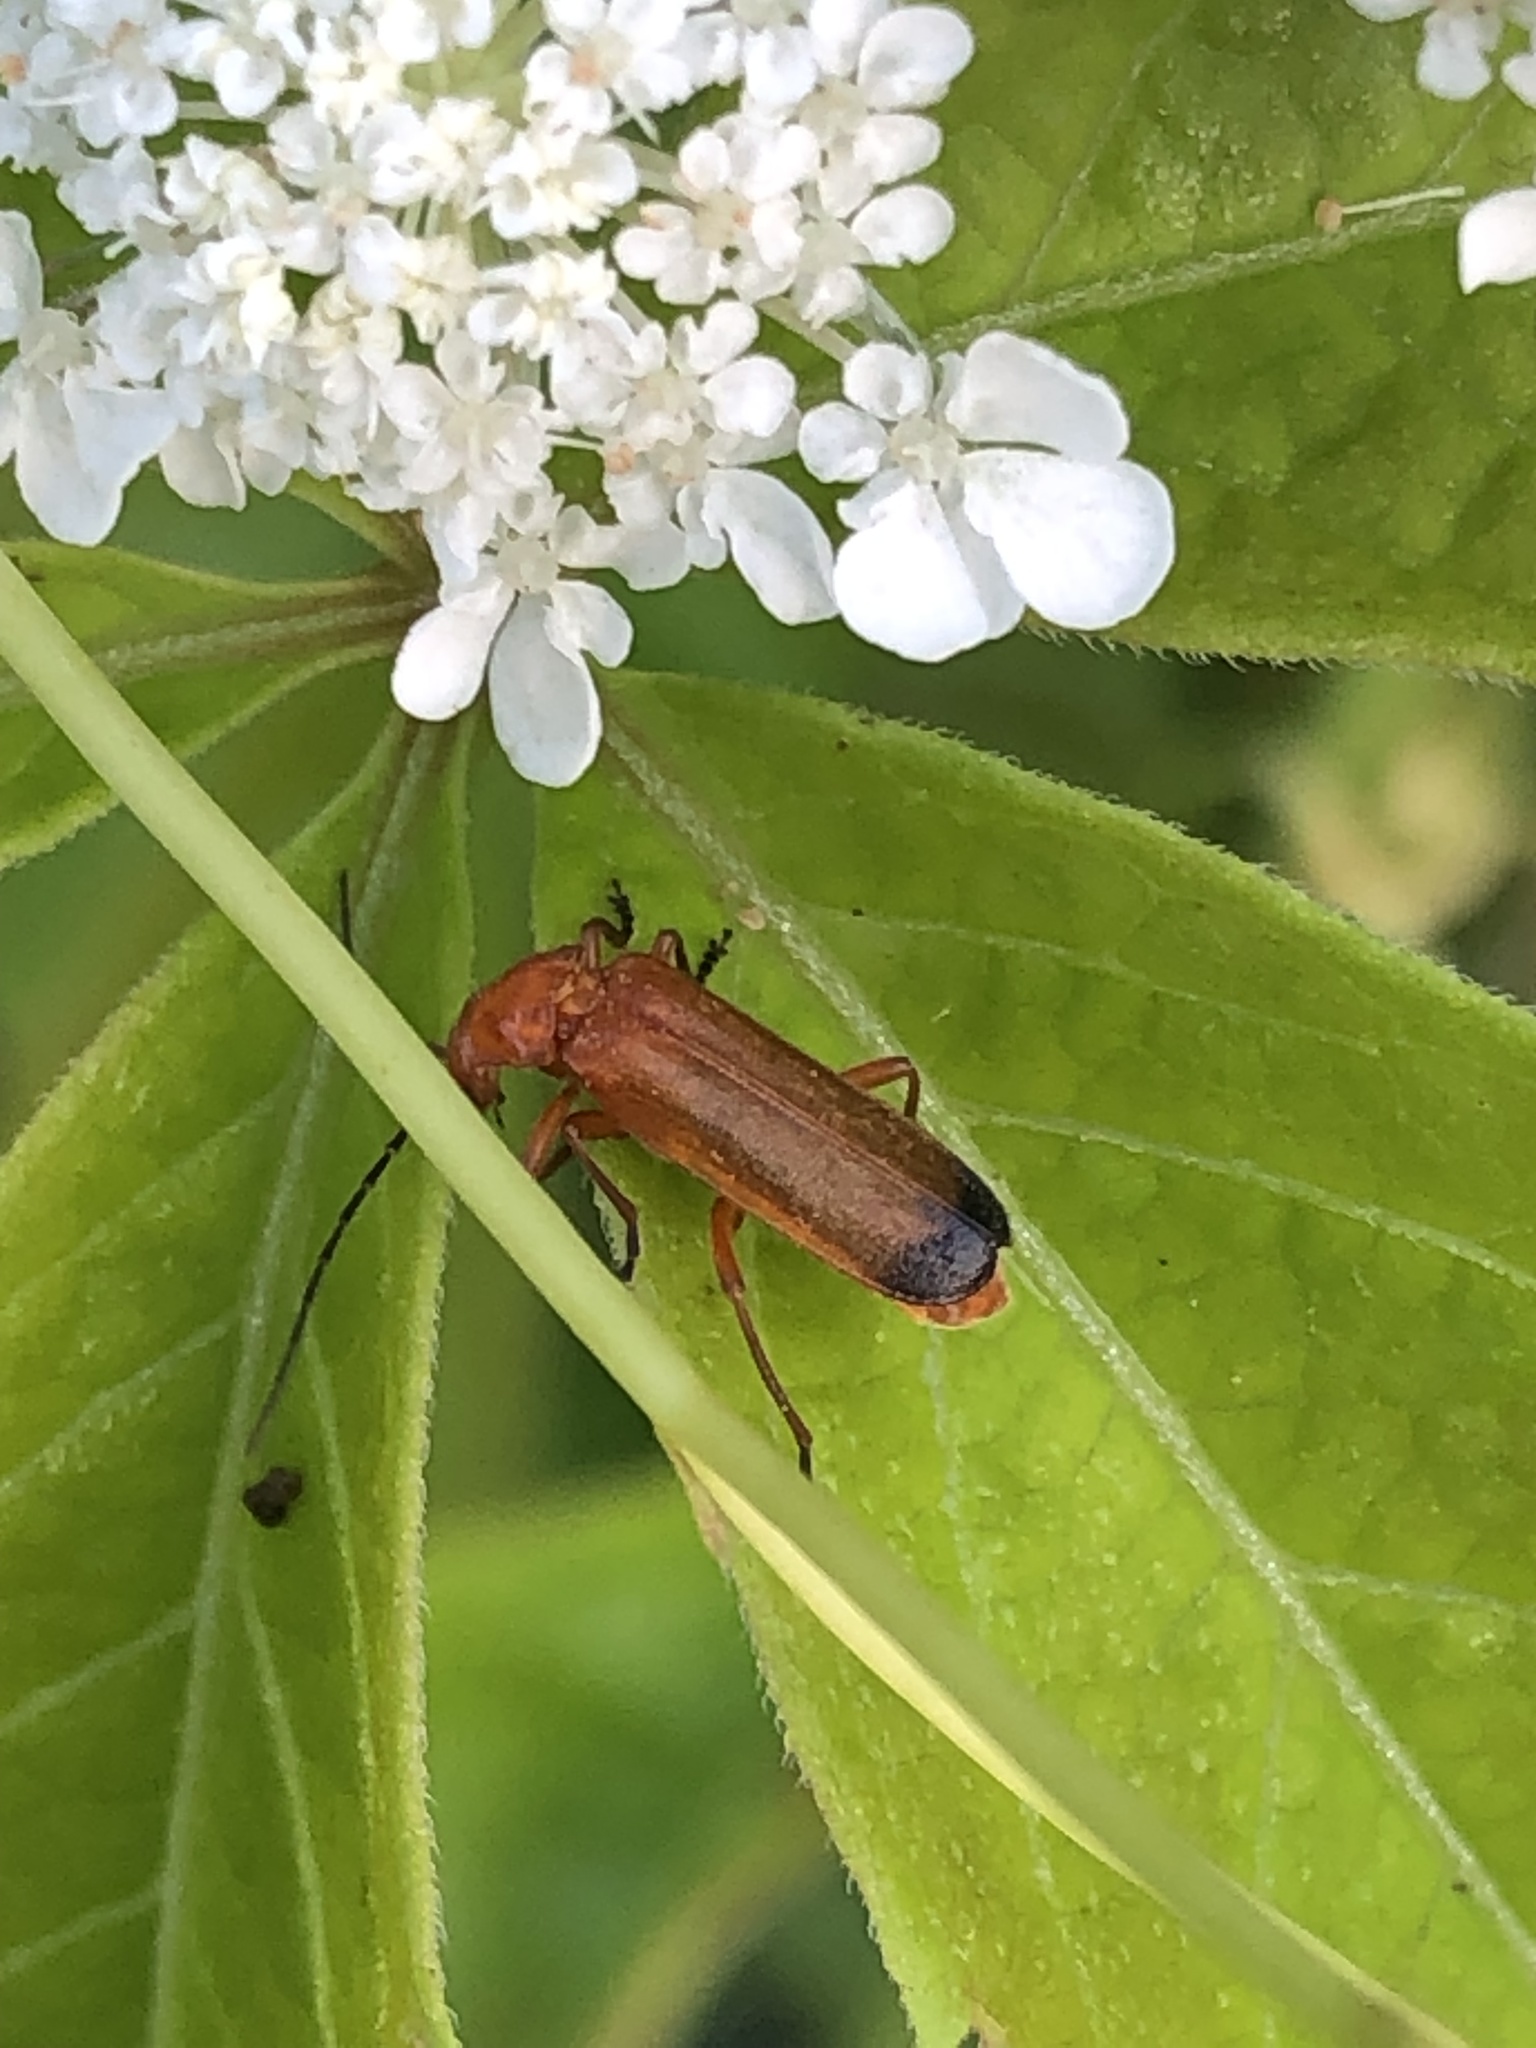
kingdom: Animalia
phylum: Arthropoda
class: Insecta
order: Coleoptera
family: Cantharidae
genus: Rhagonycha
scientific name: Rhagonycha fulva
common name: Common red soldier beetle
